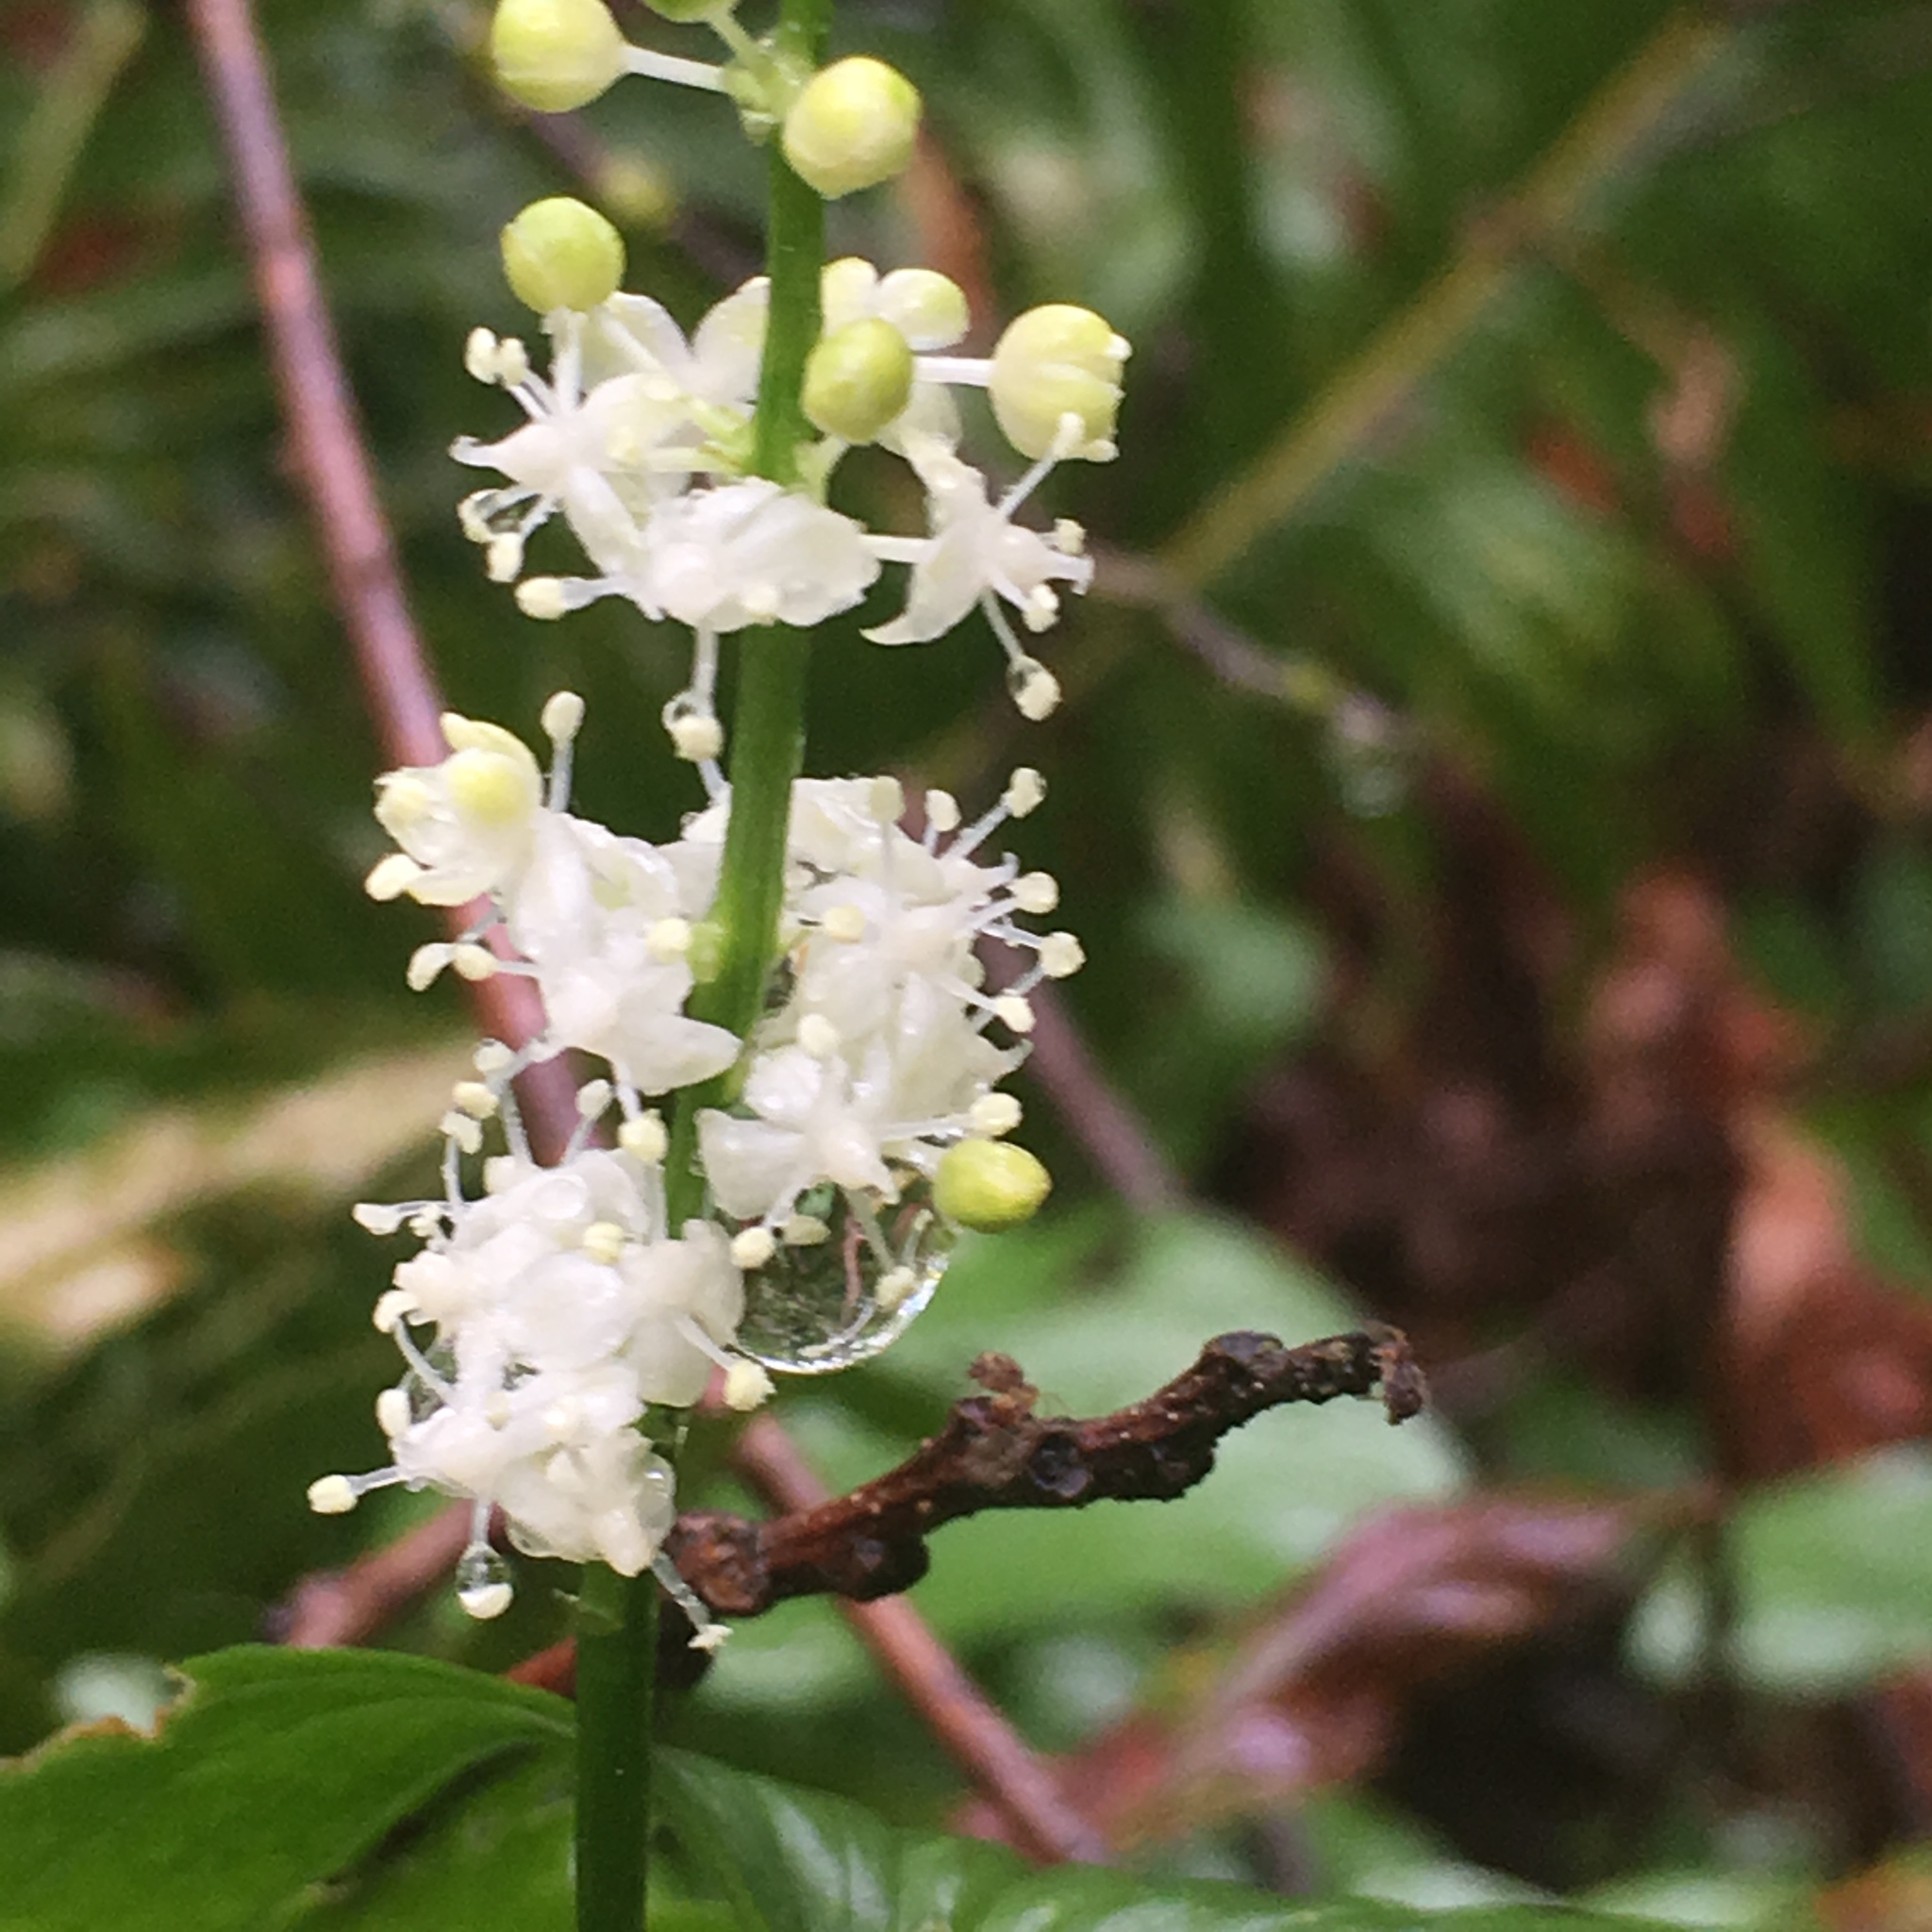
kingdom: Plantae
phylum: Tracheophyta
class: Liliopsida
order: Asparagales
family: Asparagaceae
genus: Maianthemum
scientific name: Maianthemum dilatatum
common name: False lily-of-the-valley
